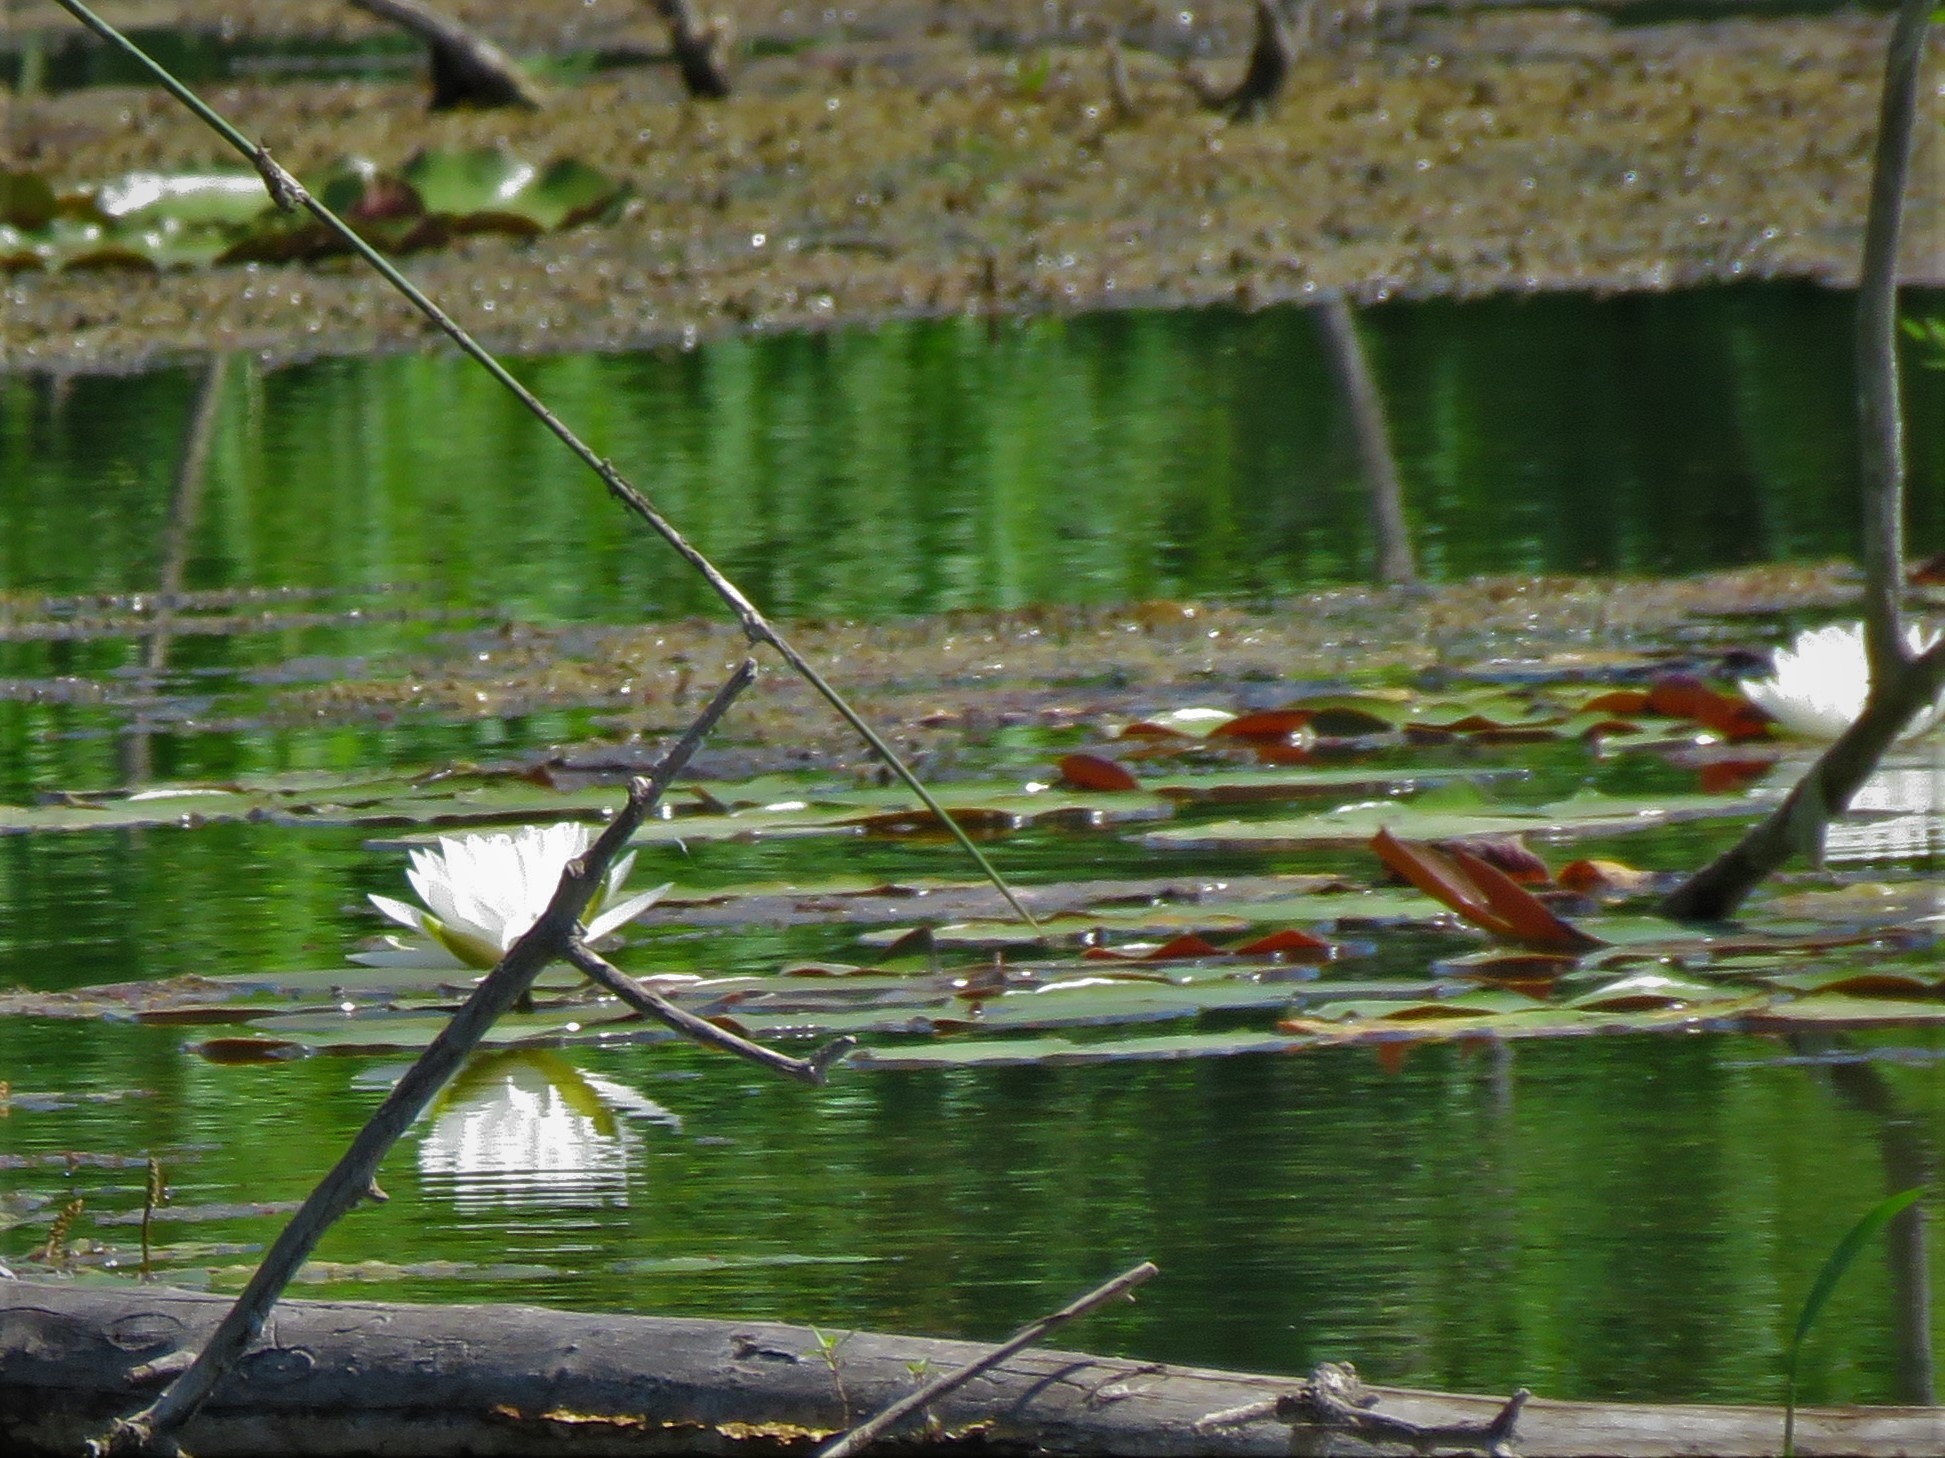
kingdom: Plantae
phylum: Tracheophyta
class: Magnoliopsida
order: Nymphaeales
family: Nymphaeaceae
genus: Nymphaea
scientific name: Nymphaea odorata
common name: Fragrant water-lily
